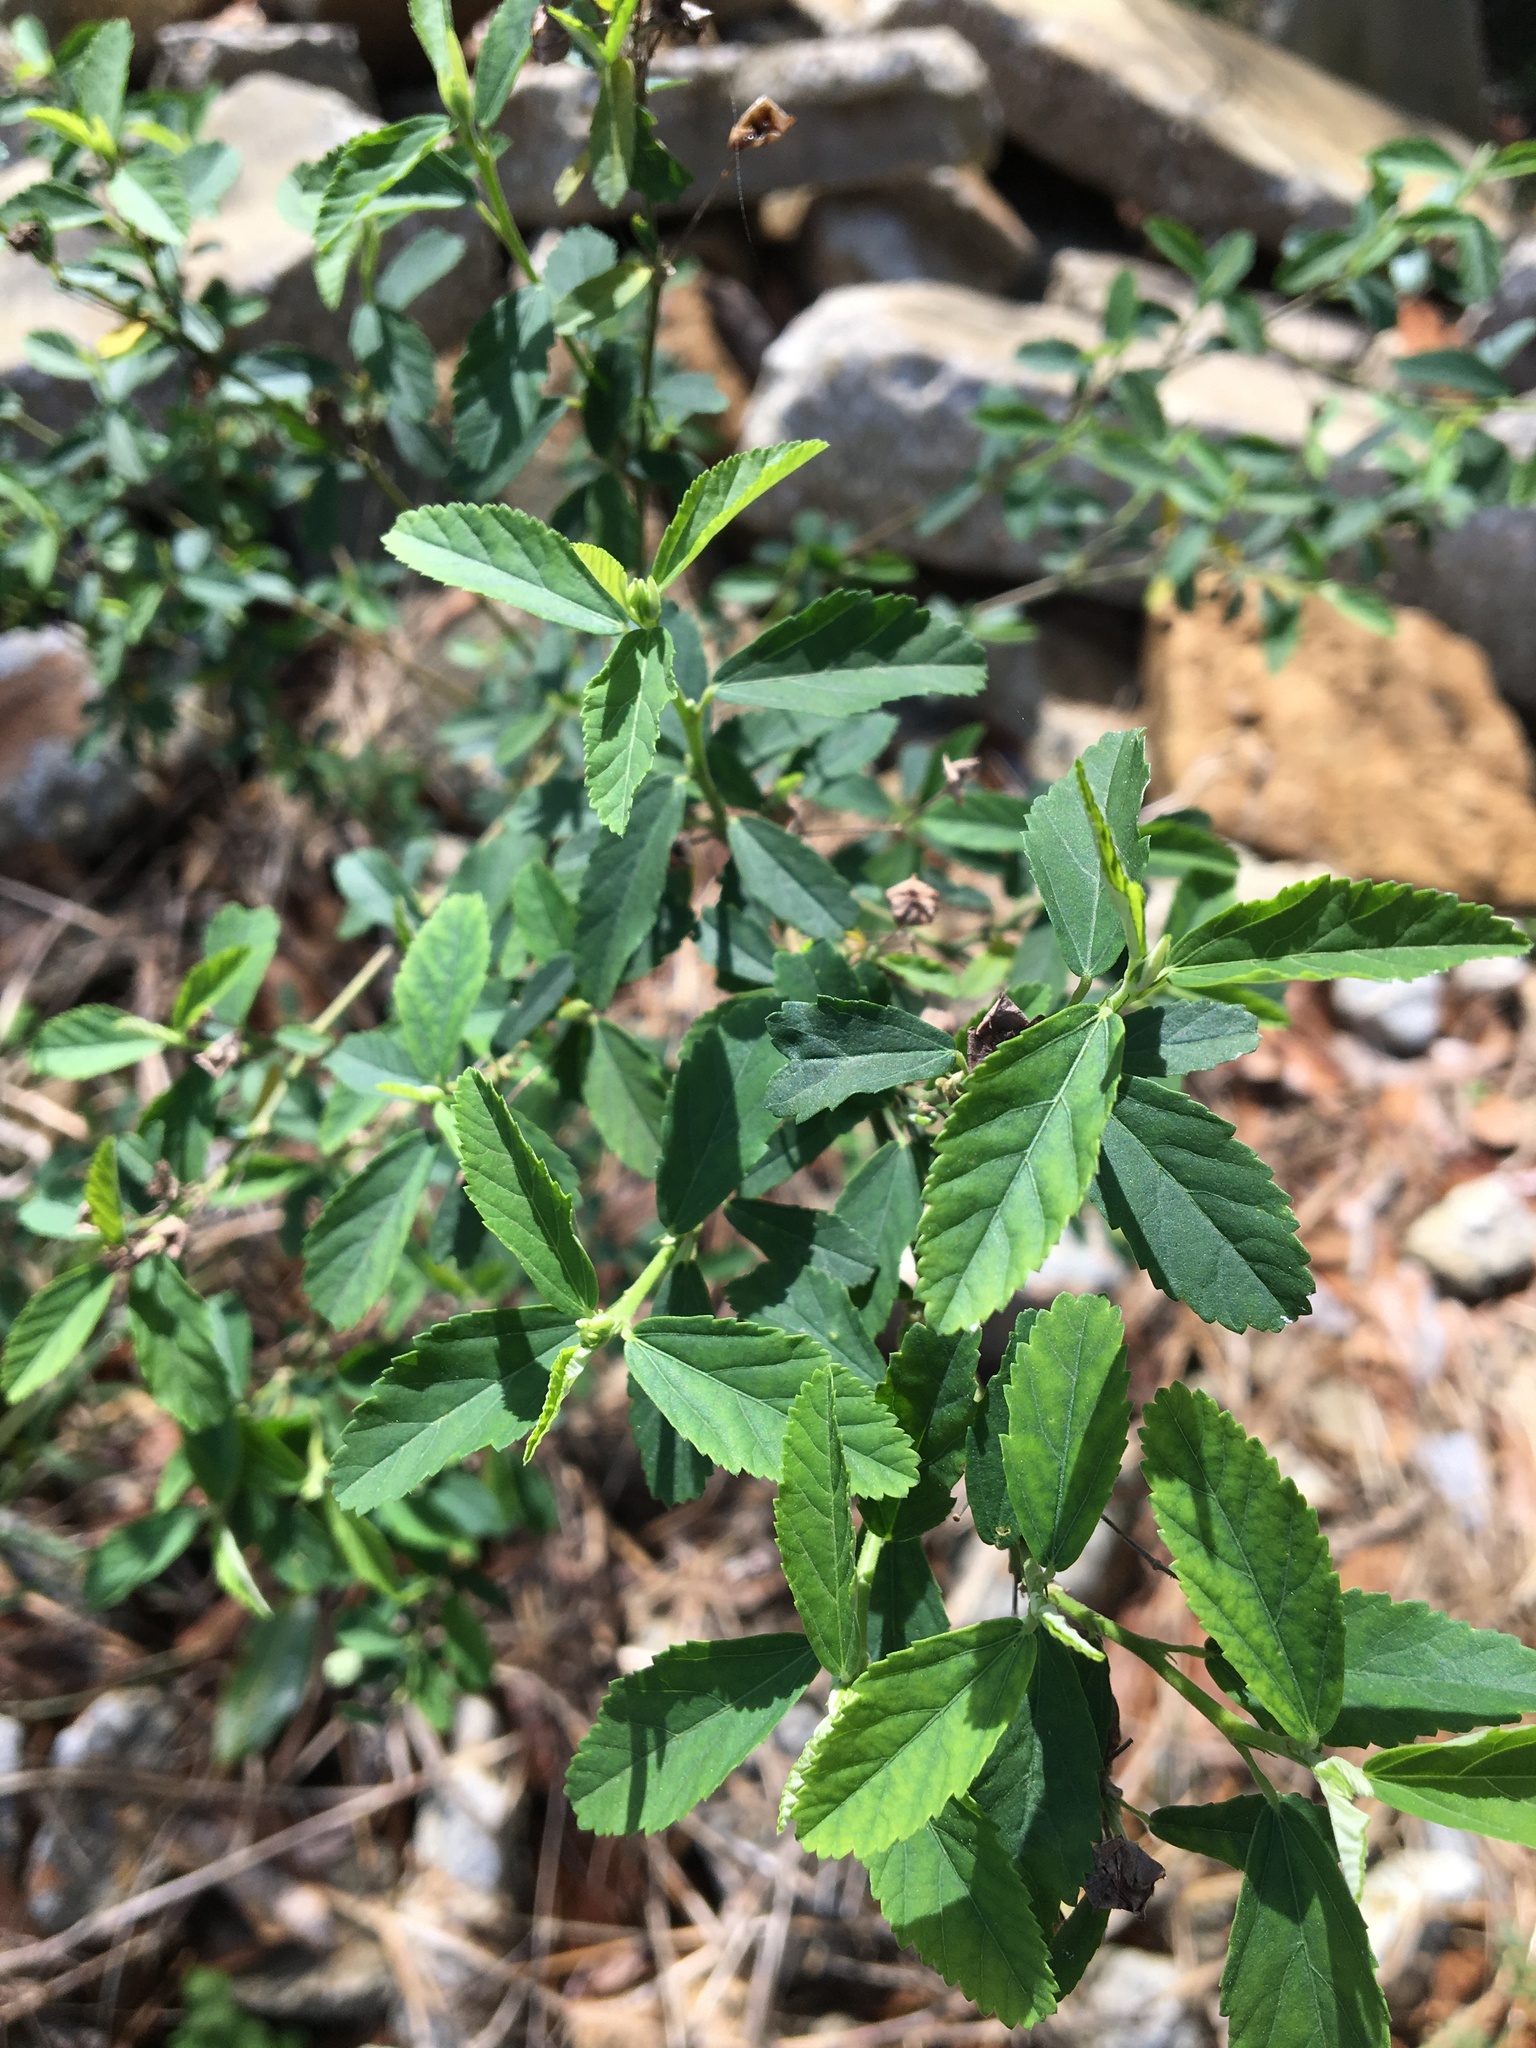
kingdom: Plantae
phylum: Tracheophyta
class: Magnoliopsida
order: Malvales
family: Malvaceae
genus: Sida
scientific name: Sida rhombifolia
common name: Queensland-hemp
